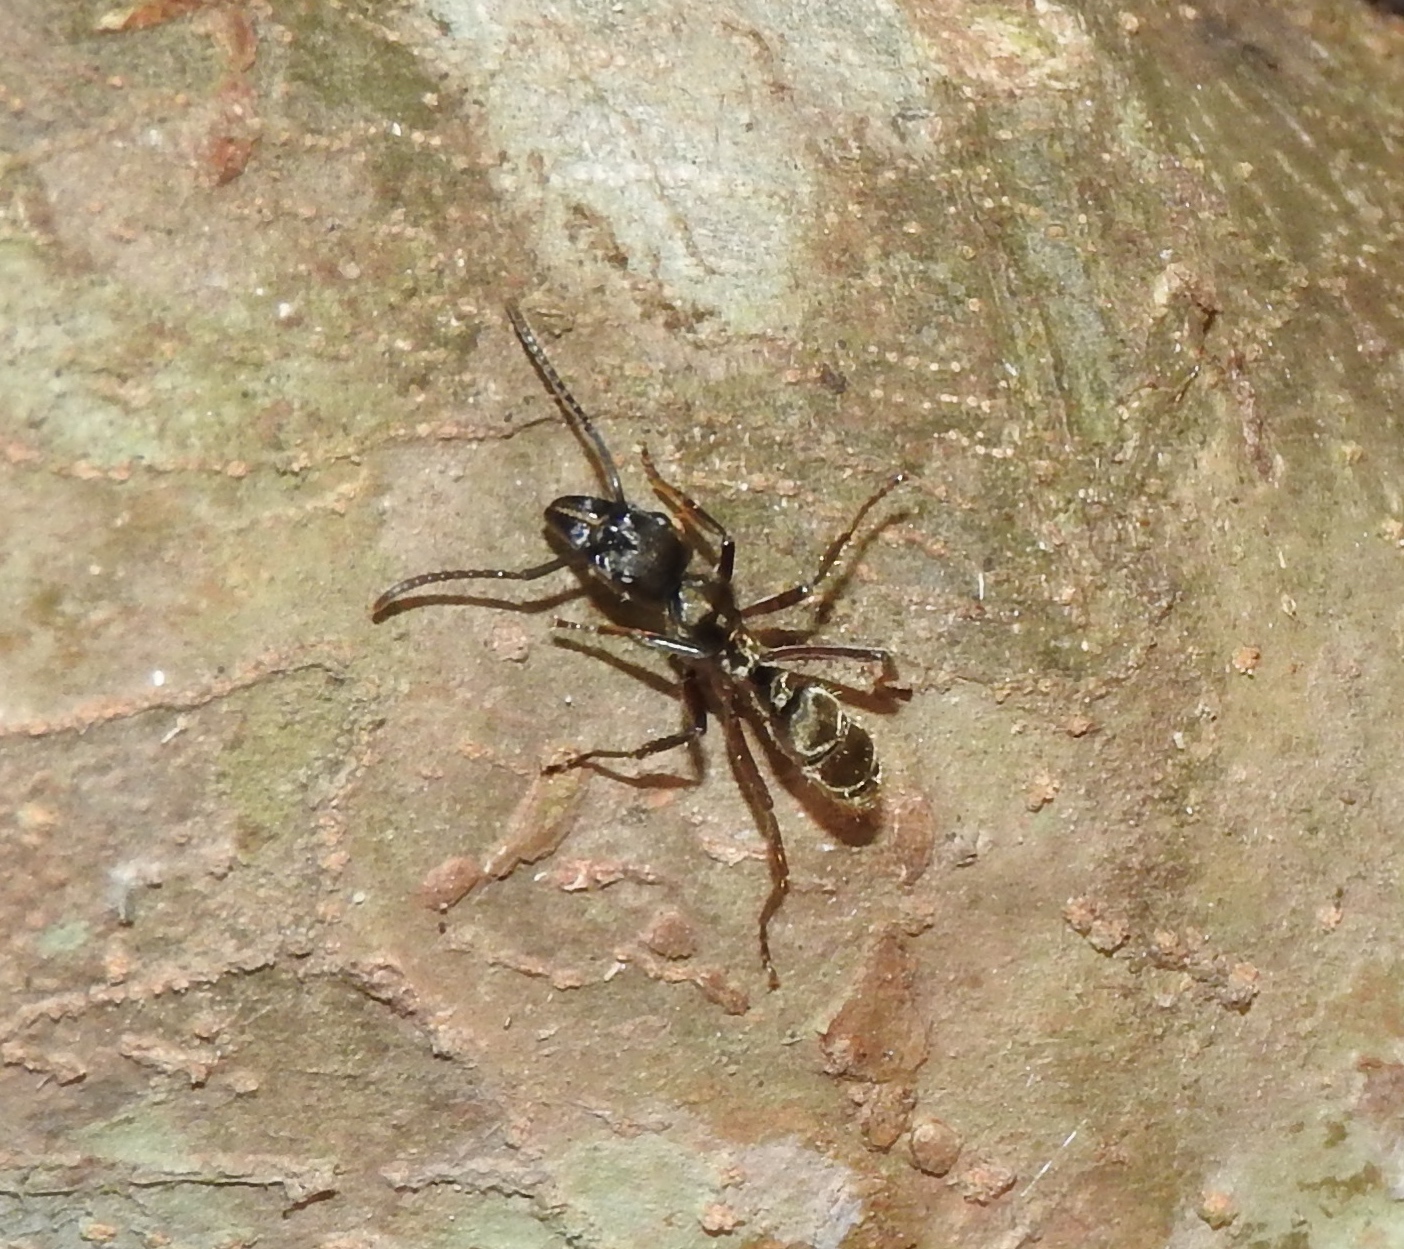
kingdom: Animalia
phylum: Arthropoda
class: Insecta
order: Hymenoptera
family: Formicidae
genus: Pachycondyla
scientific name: Pachycondyla villosa
